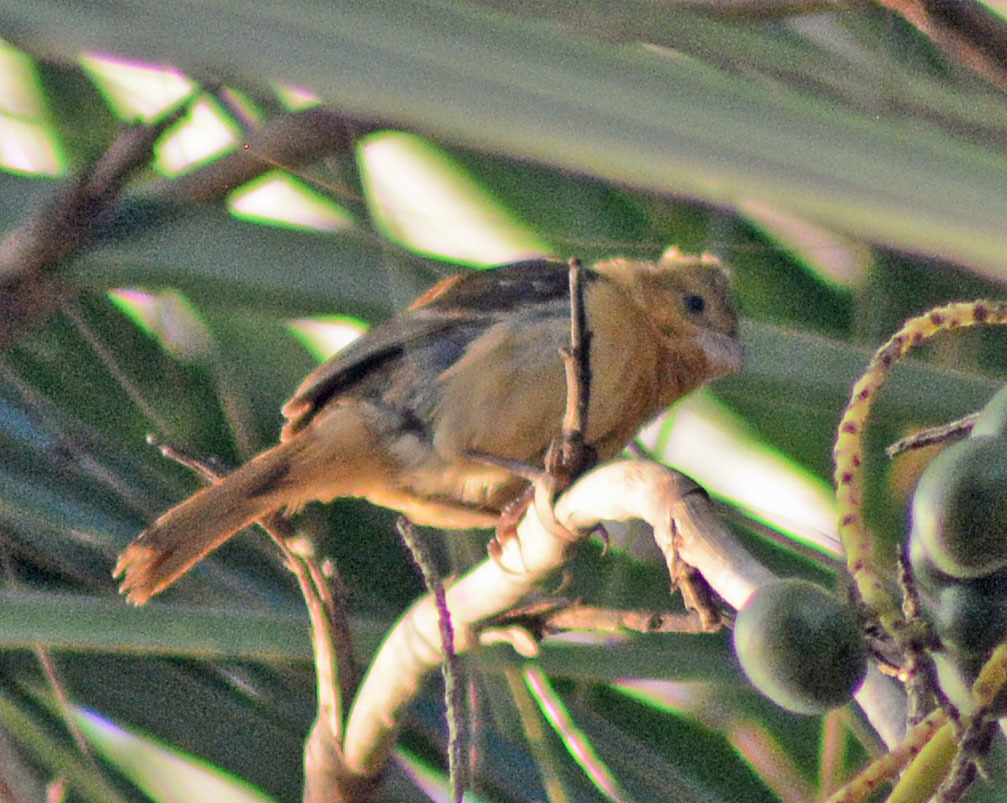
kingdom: Animalia
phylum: Chordata
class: Aves
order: Passeriformes
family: Thraupidae
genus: Sporophila
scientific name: Sporophila morelleti
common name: Morelet's seedeater
